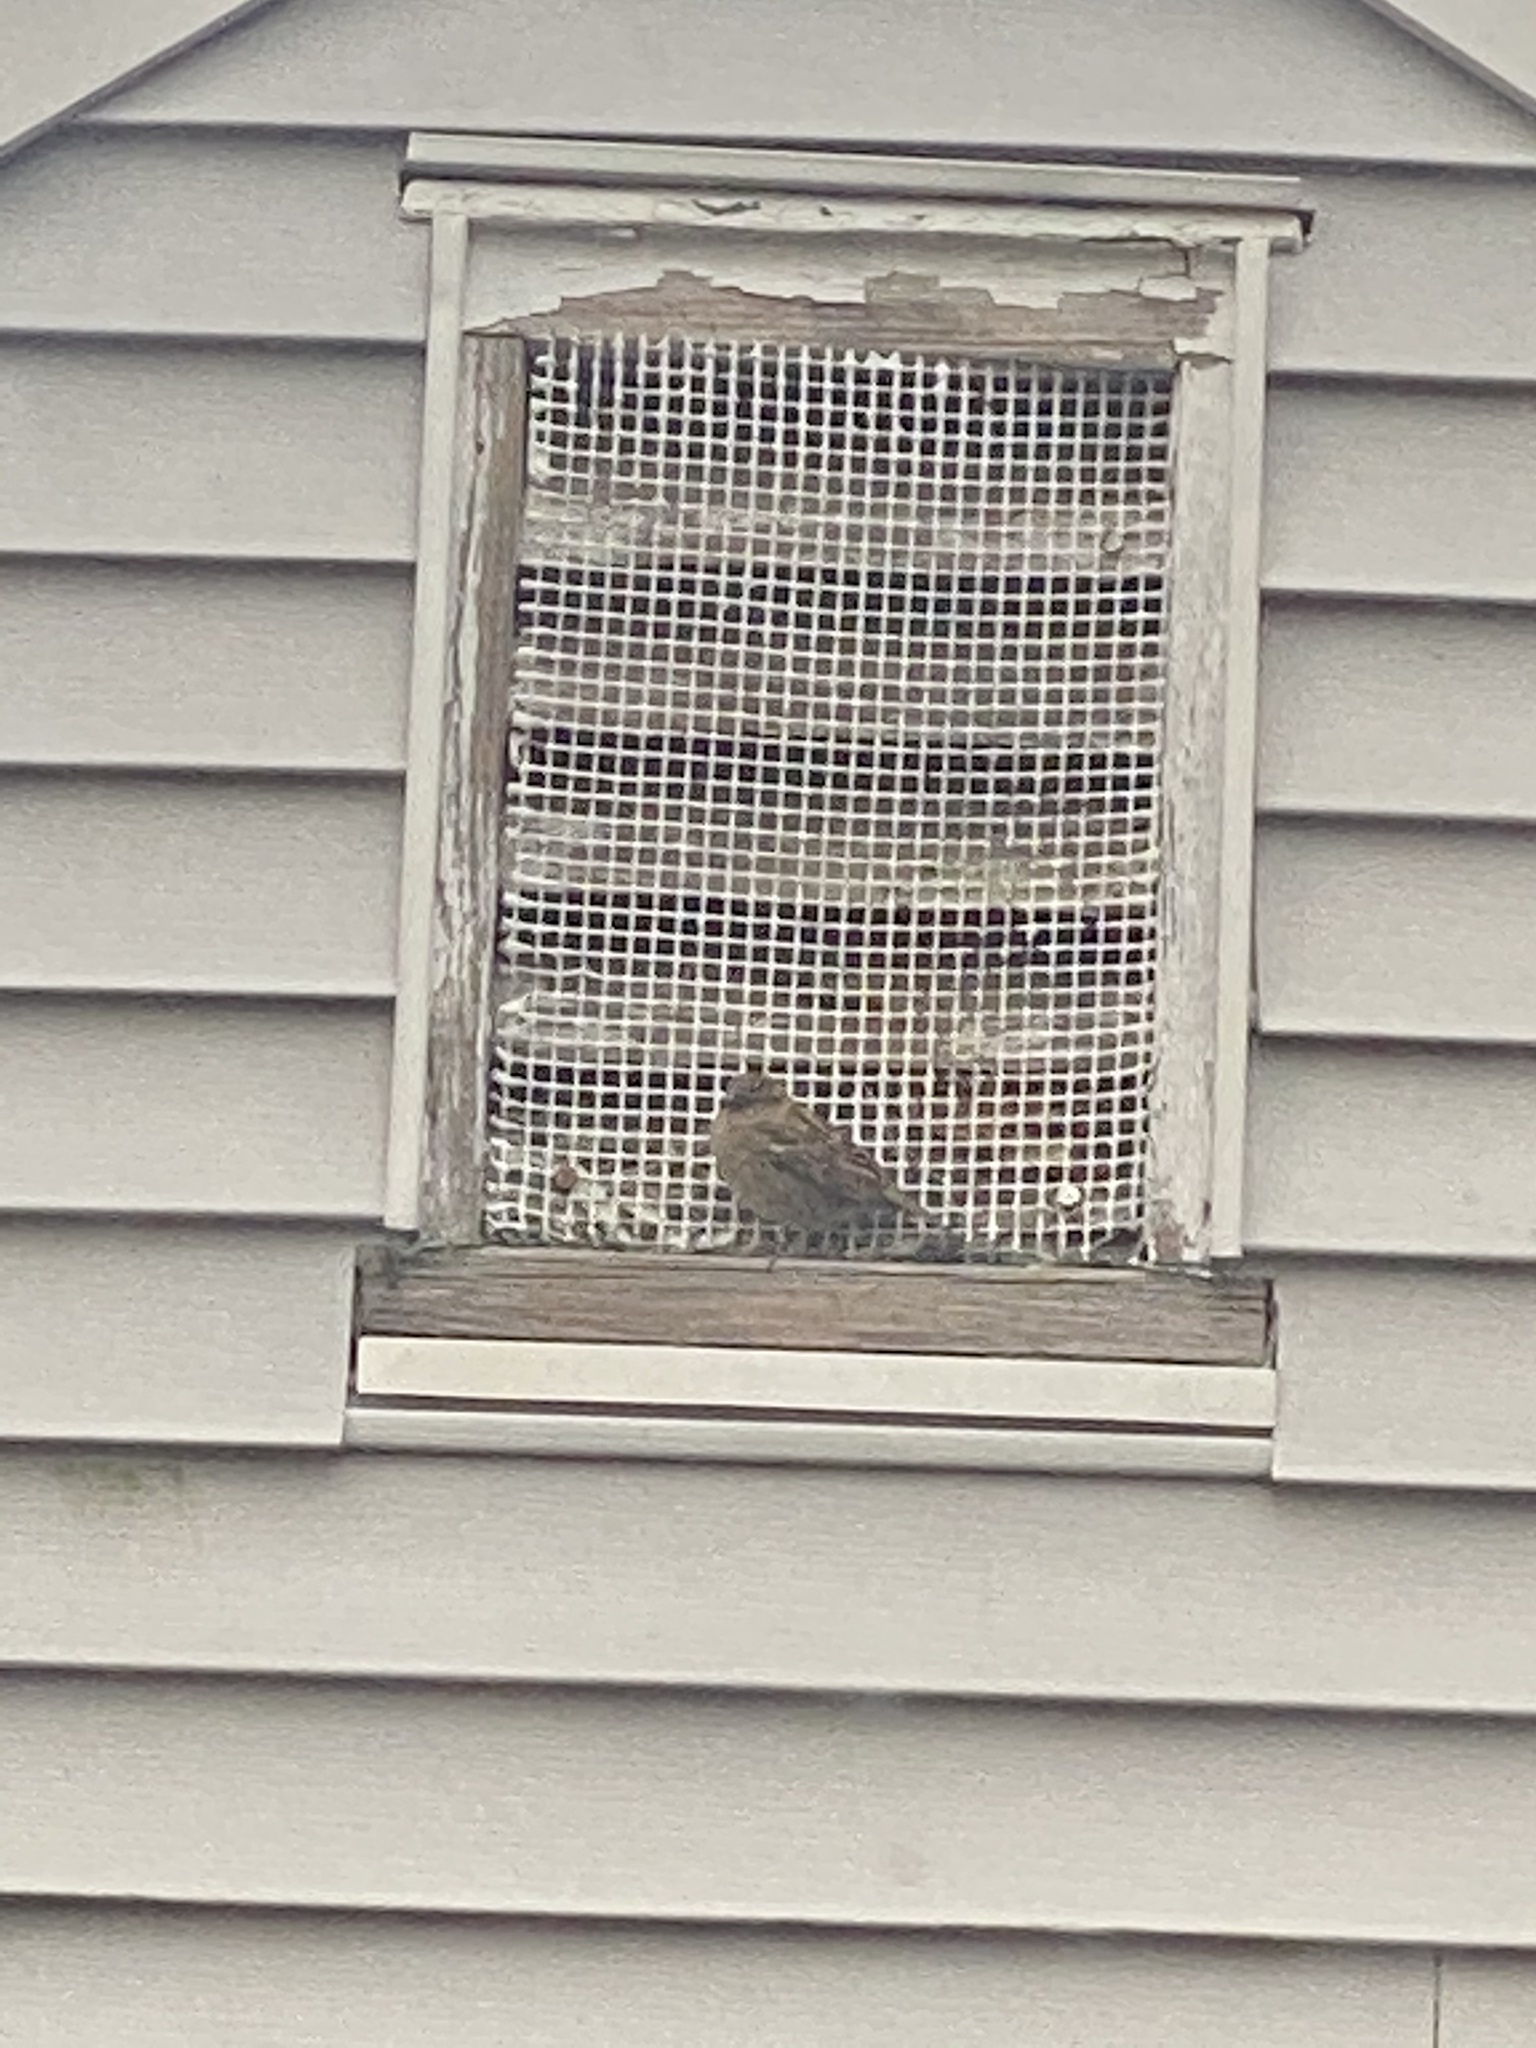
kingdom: Animalia
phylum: Chordata
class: Aves
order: Passeriformes
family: Passeridae
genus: Passer
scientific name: Passer domesticus
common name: House sparrow
